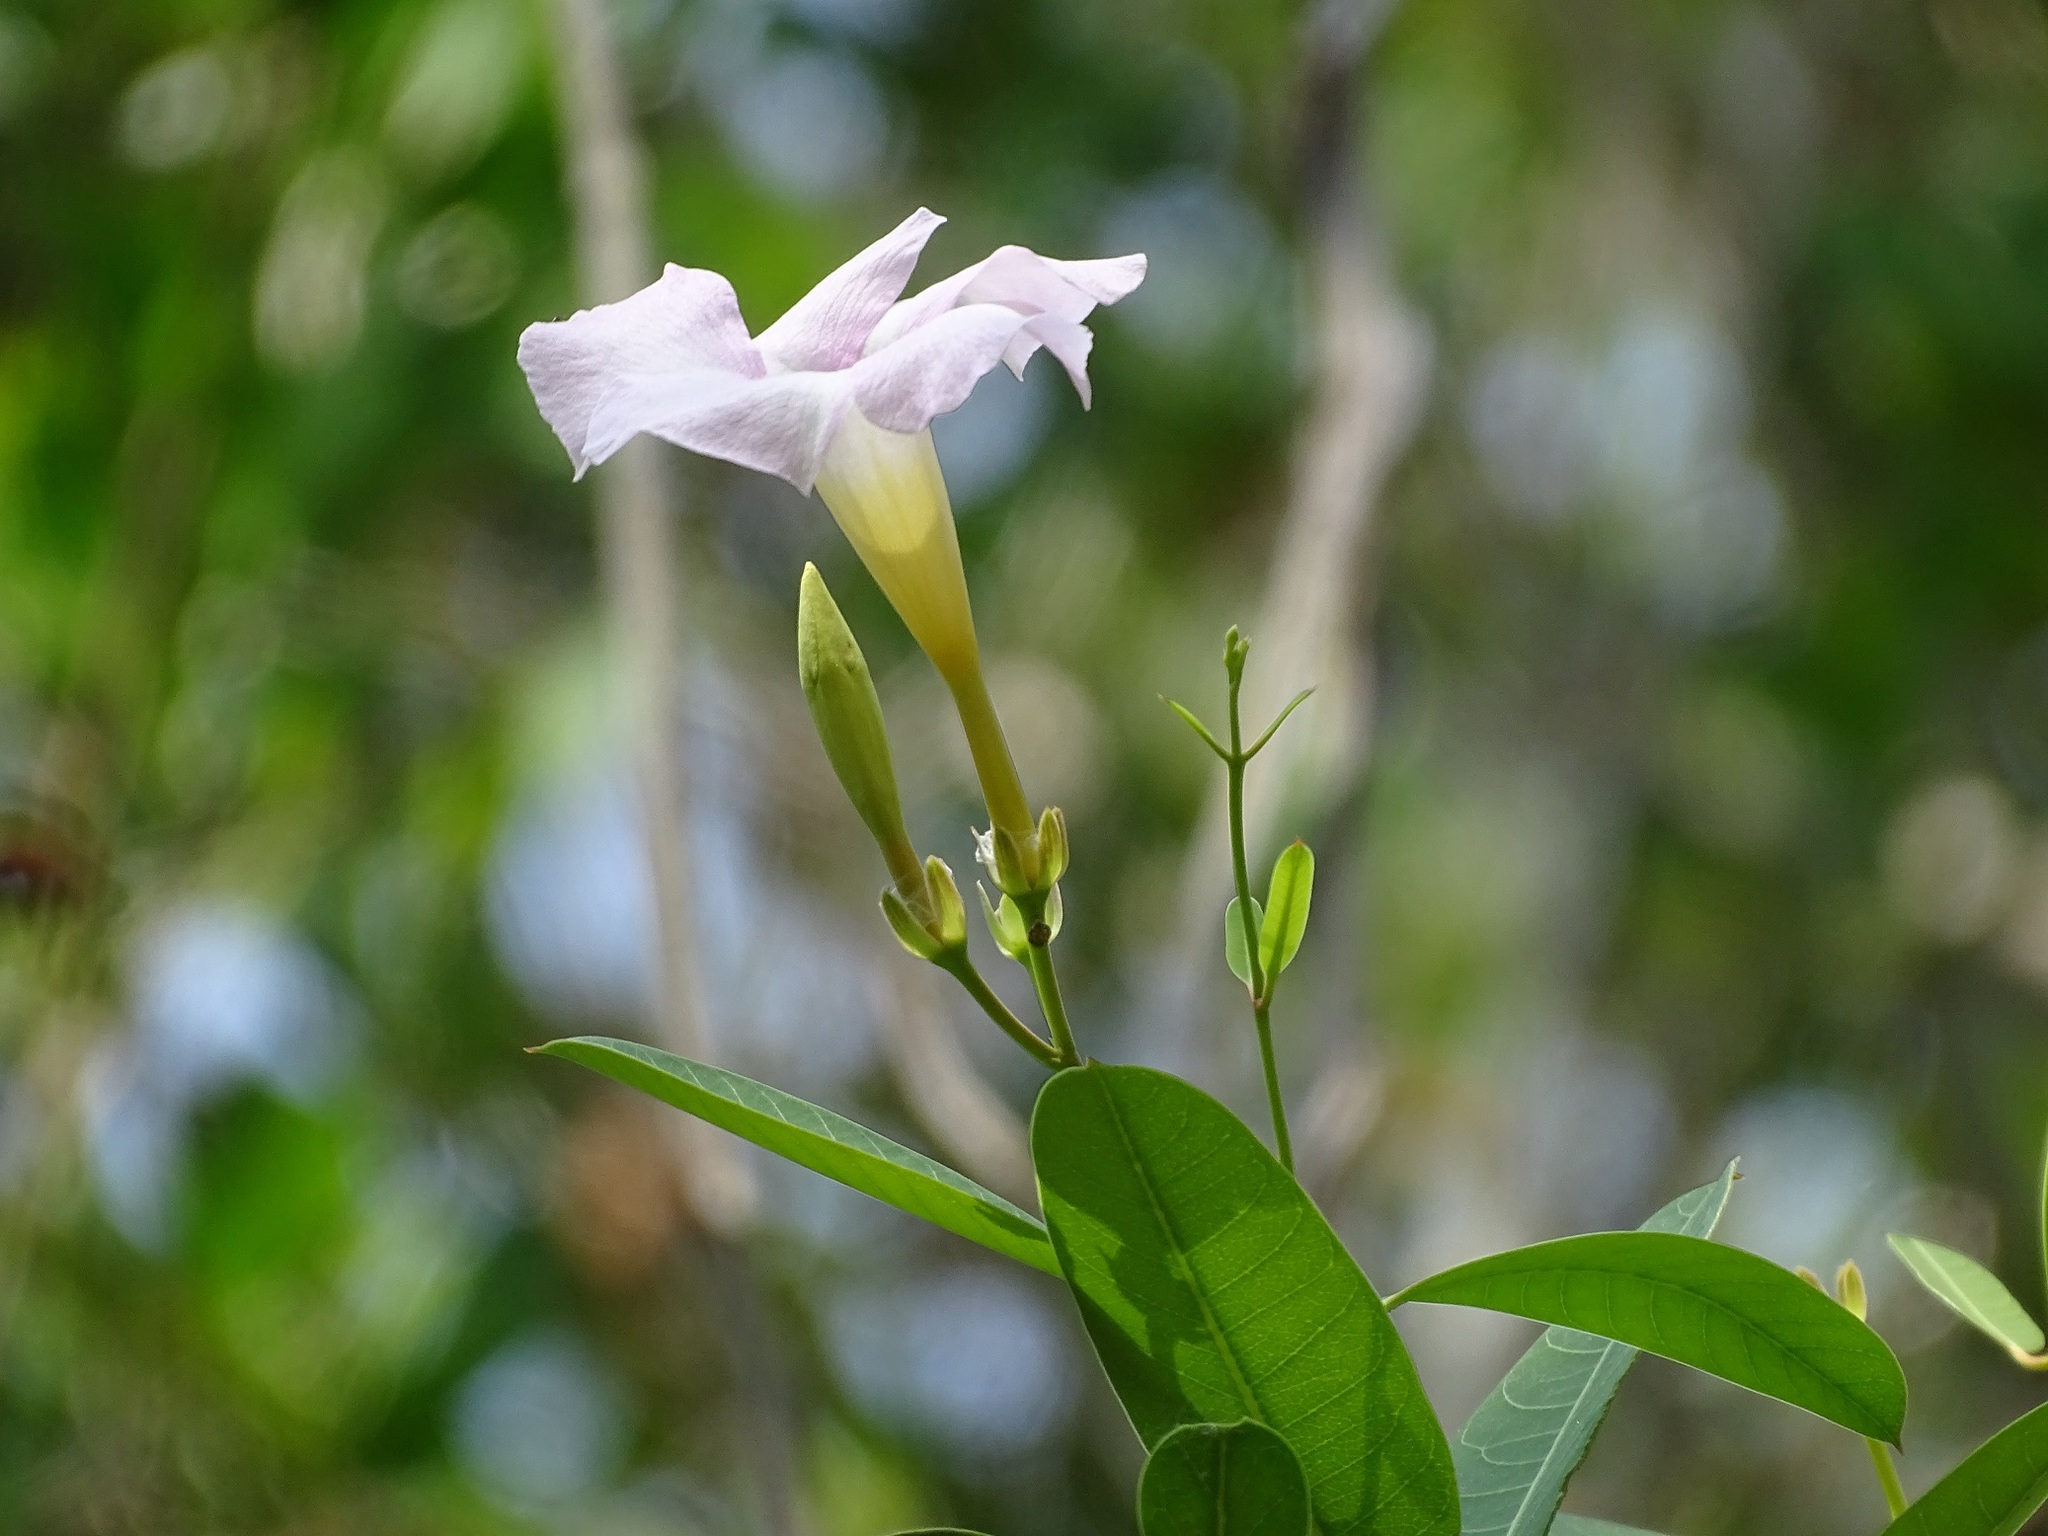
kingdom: Plantae
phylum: Tracheophyta
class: Magnoliopsida
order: Gentianales
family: Apocynaceae
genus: Rhabdadenia
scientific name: Rhabdadenia biflora
